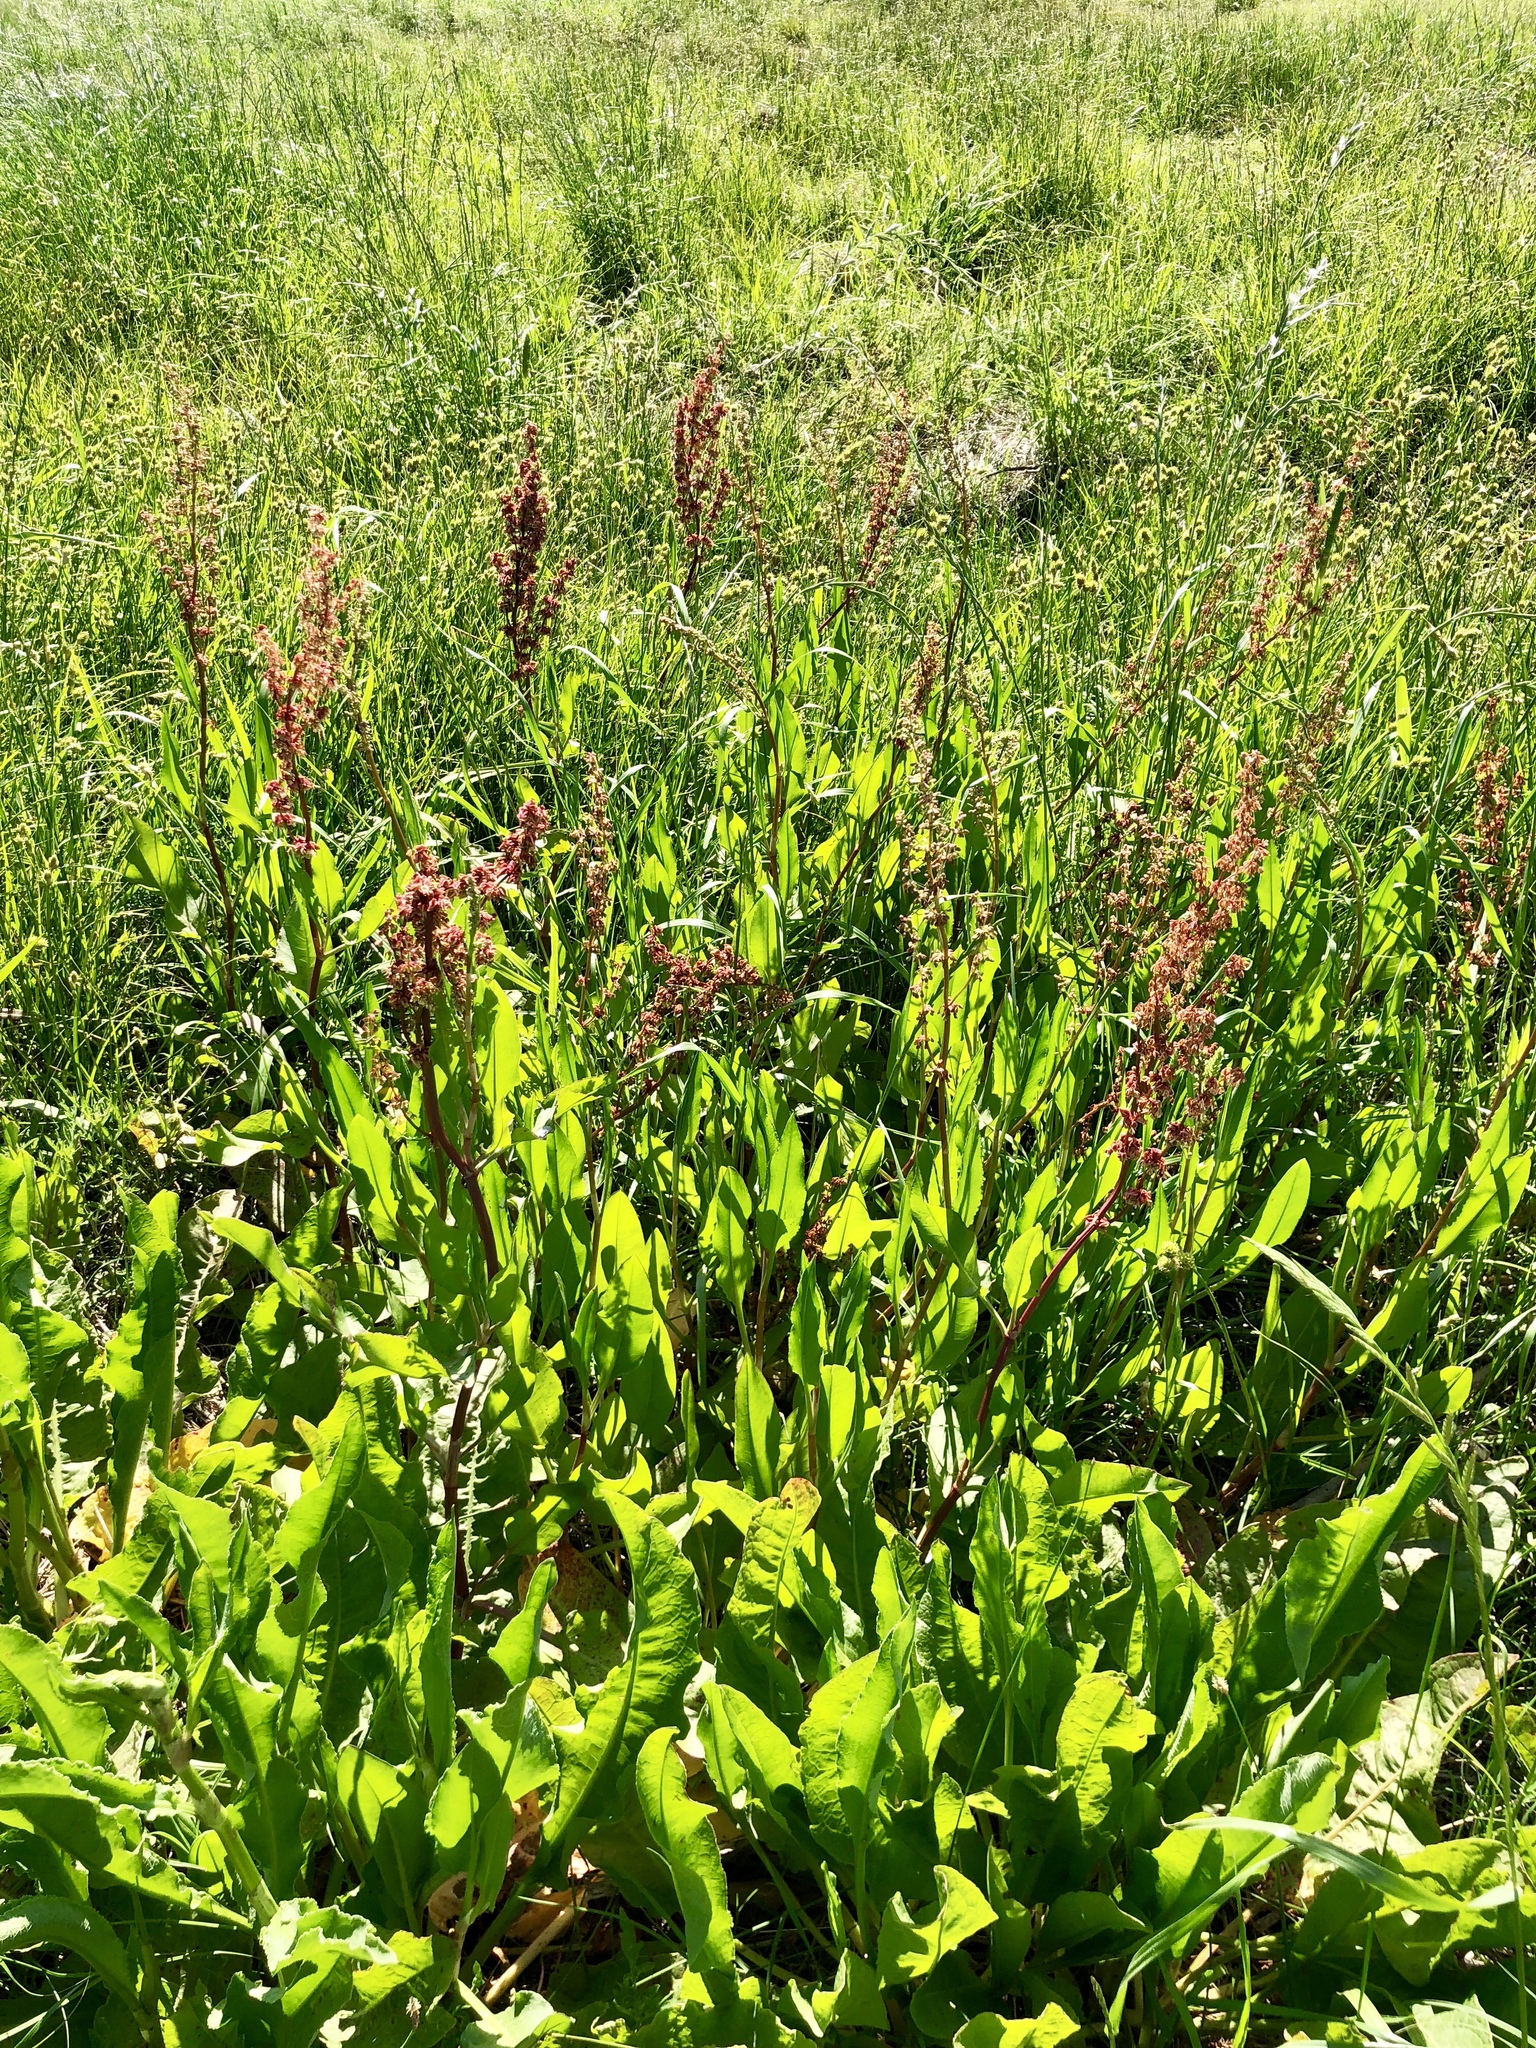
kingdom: Plantae
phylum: Tracheophyta
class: Magnoliopsida
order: Caryophyllales
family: Polygonaceae
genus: Rumex
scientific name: Rumex crispus
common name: Curled dock
